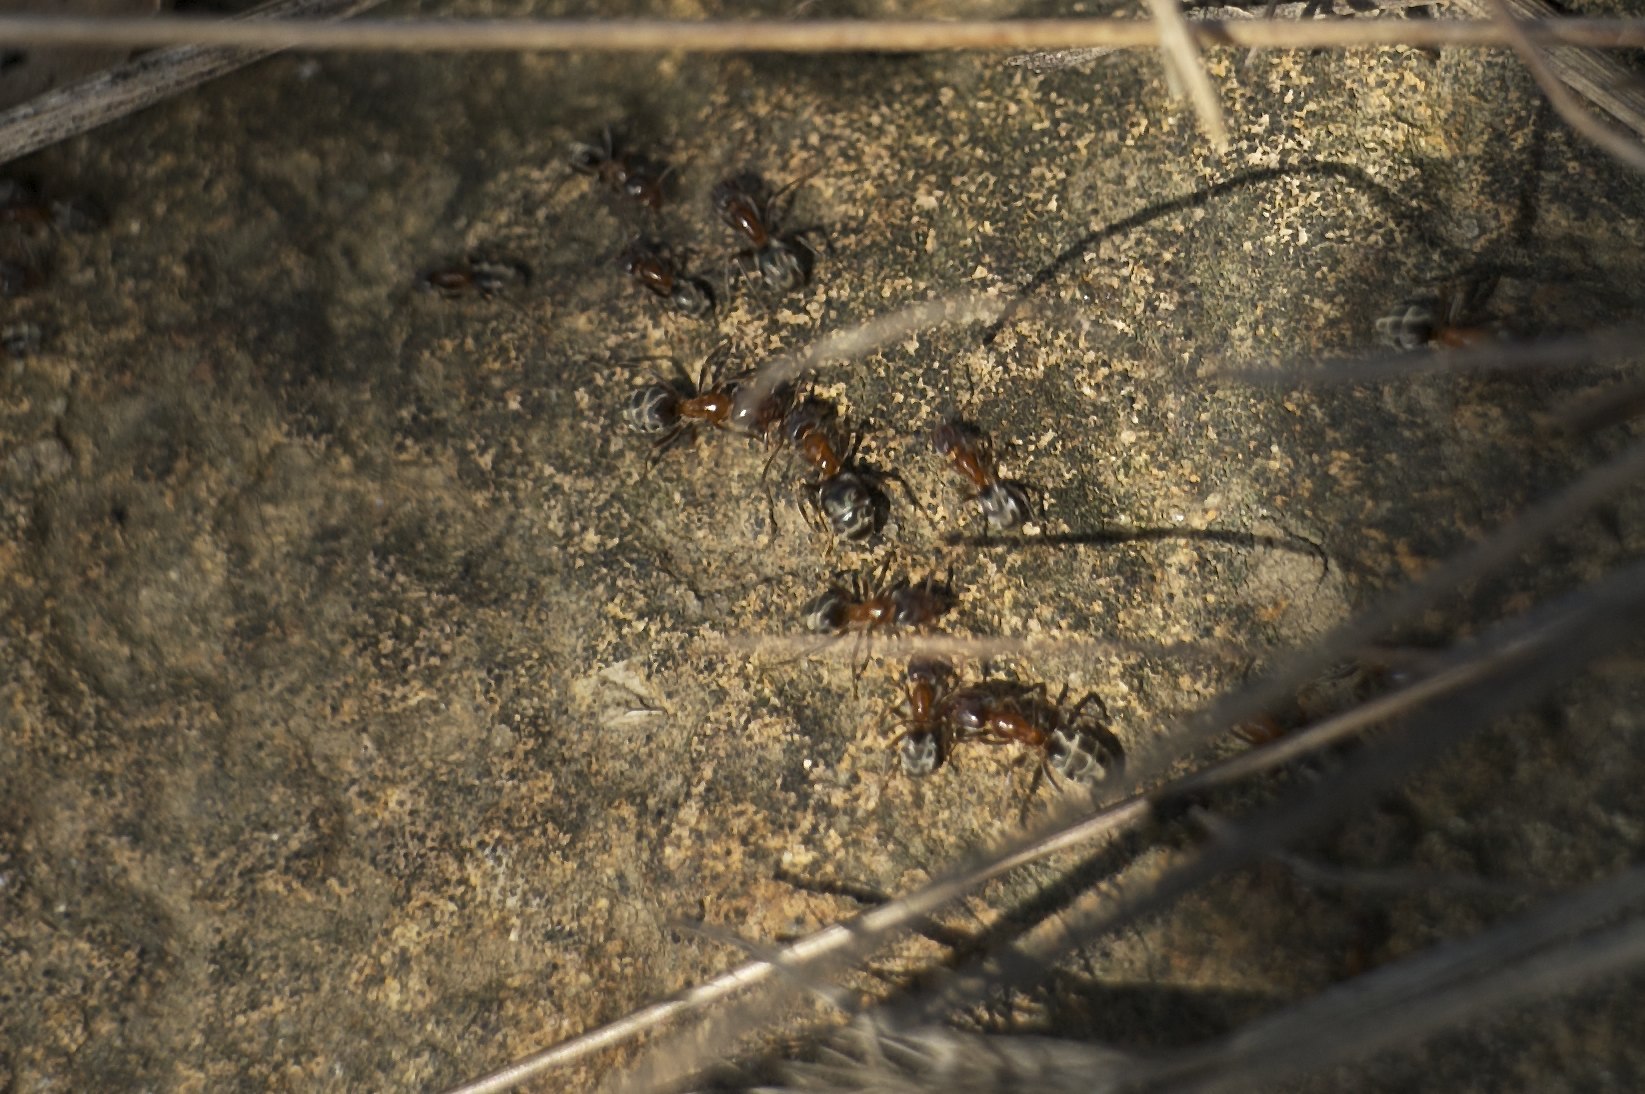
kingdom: Animalia
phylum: Arthropoda
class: Insecta
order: Hymenoptera
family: Formicidae
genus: Liometopum
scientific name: Liometopum occidentale
